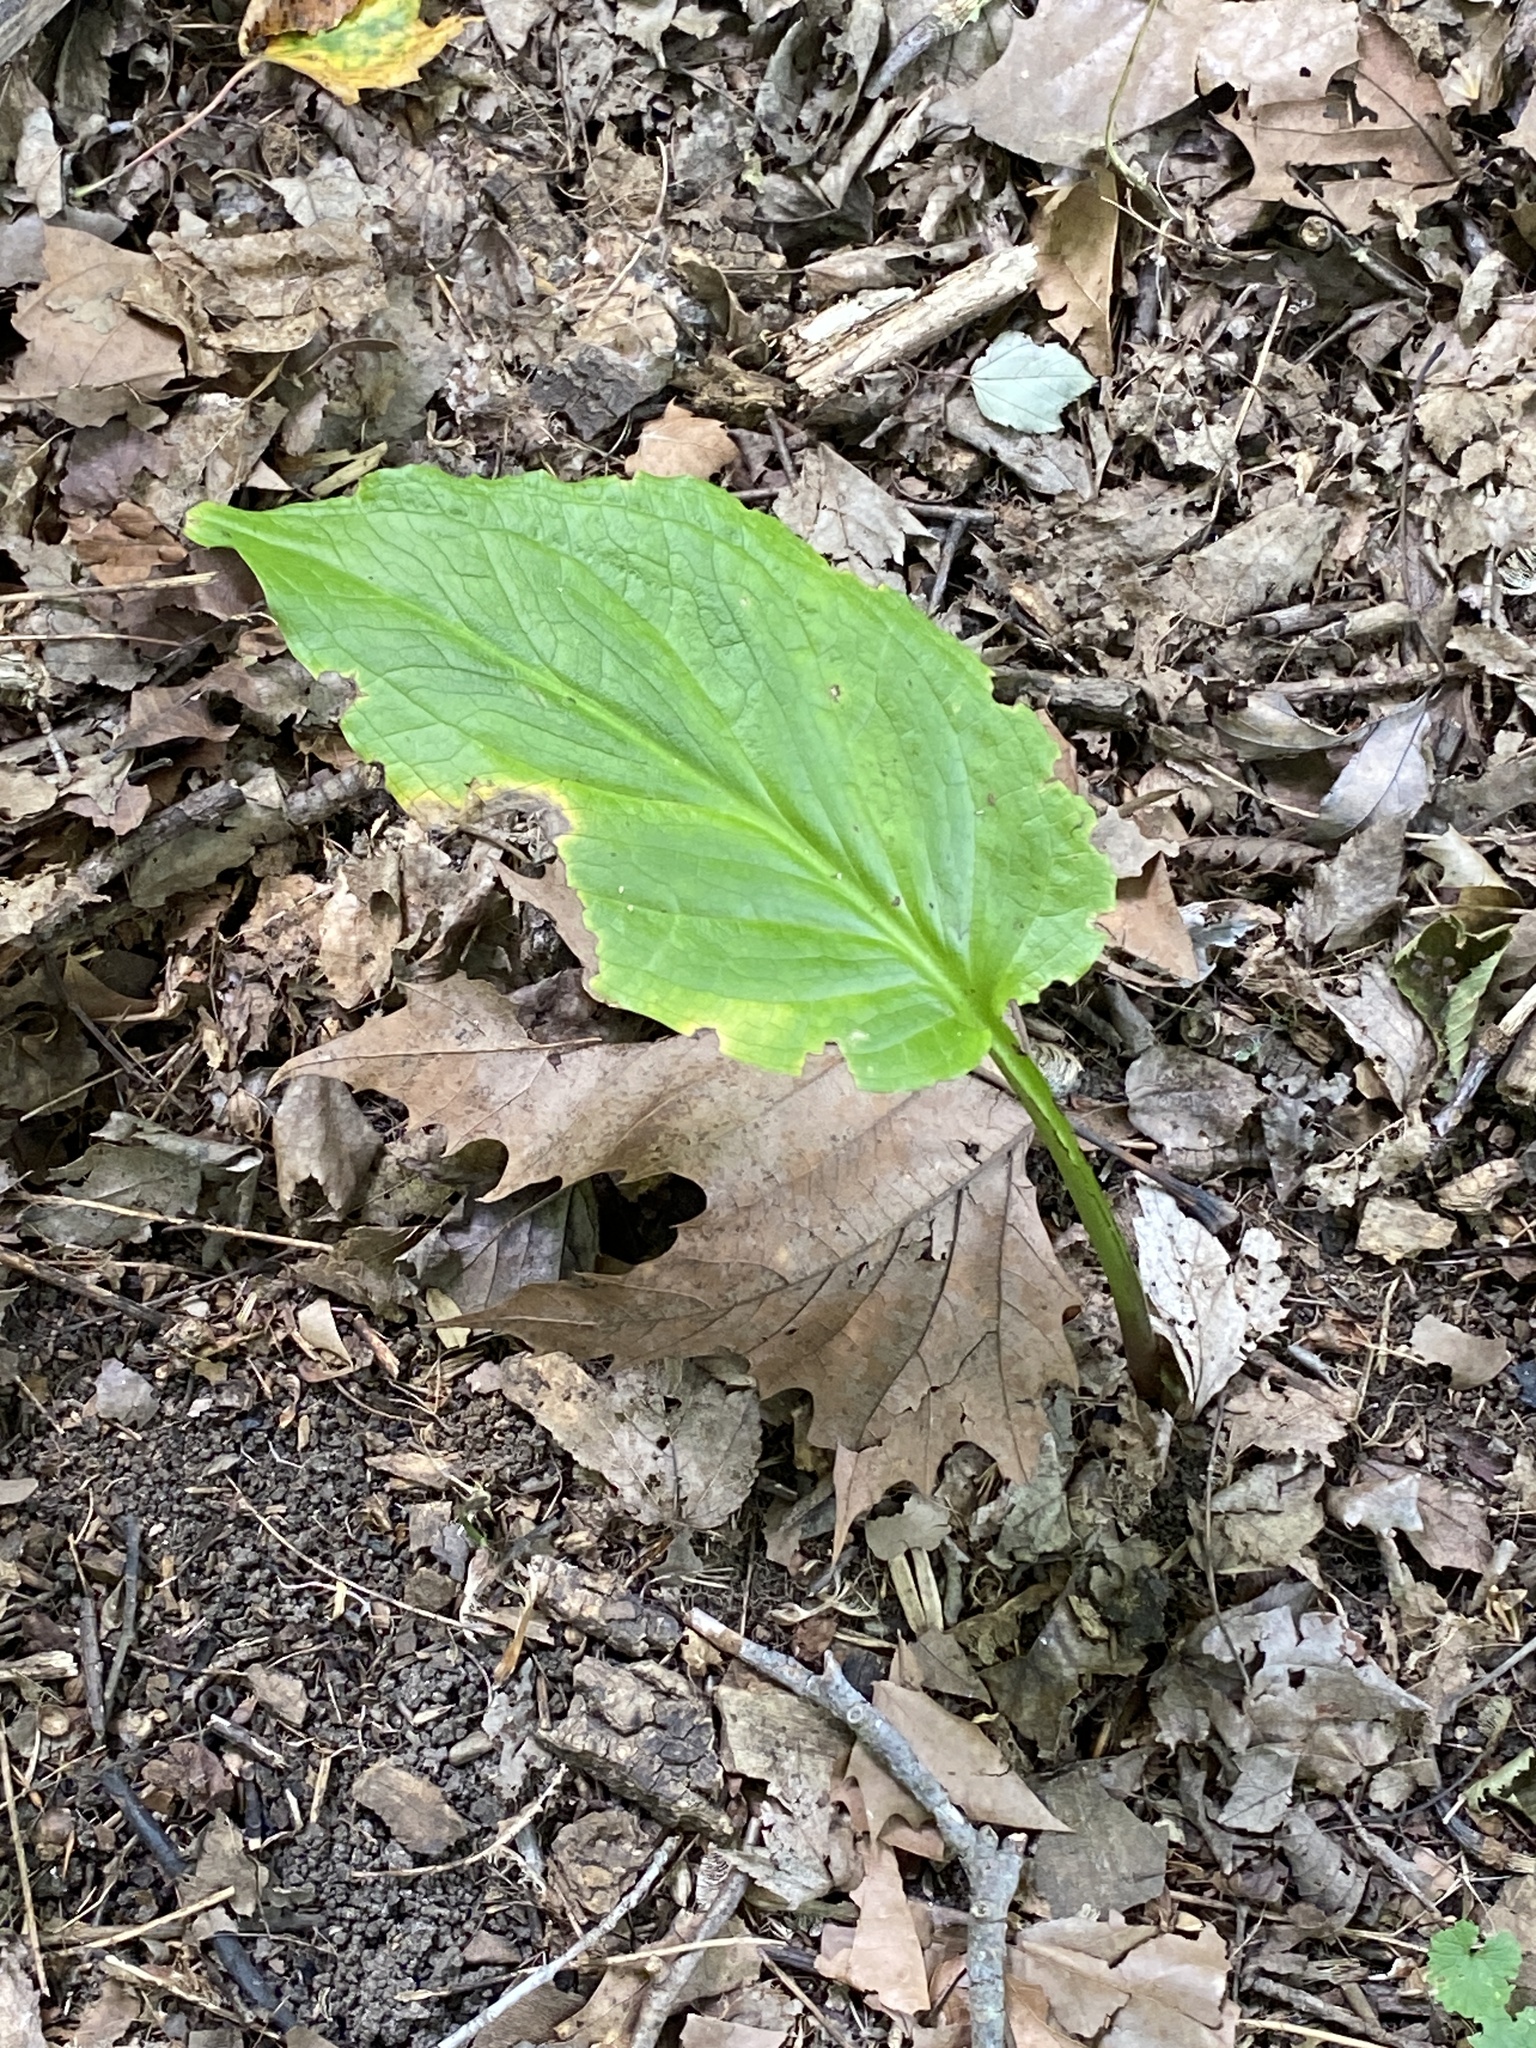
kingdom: Plantae
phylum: Tracheophyta
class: Liliopsida
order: Alismatales
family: Araceae
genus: Symplocarpus
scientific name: Symplocarpus foetidus
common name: Eastern skunk cabbage
